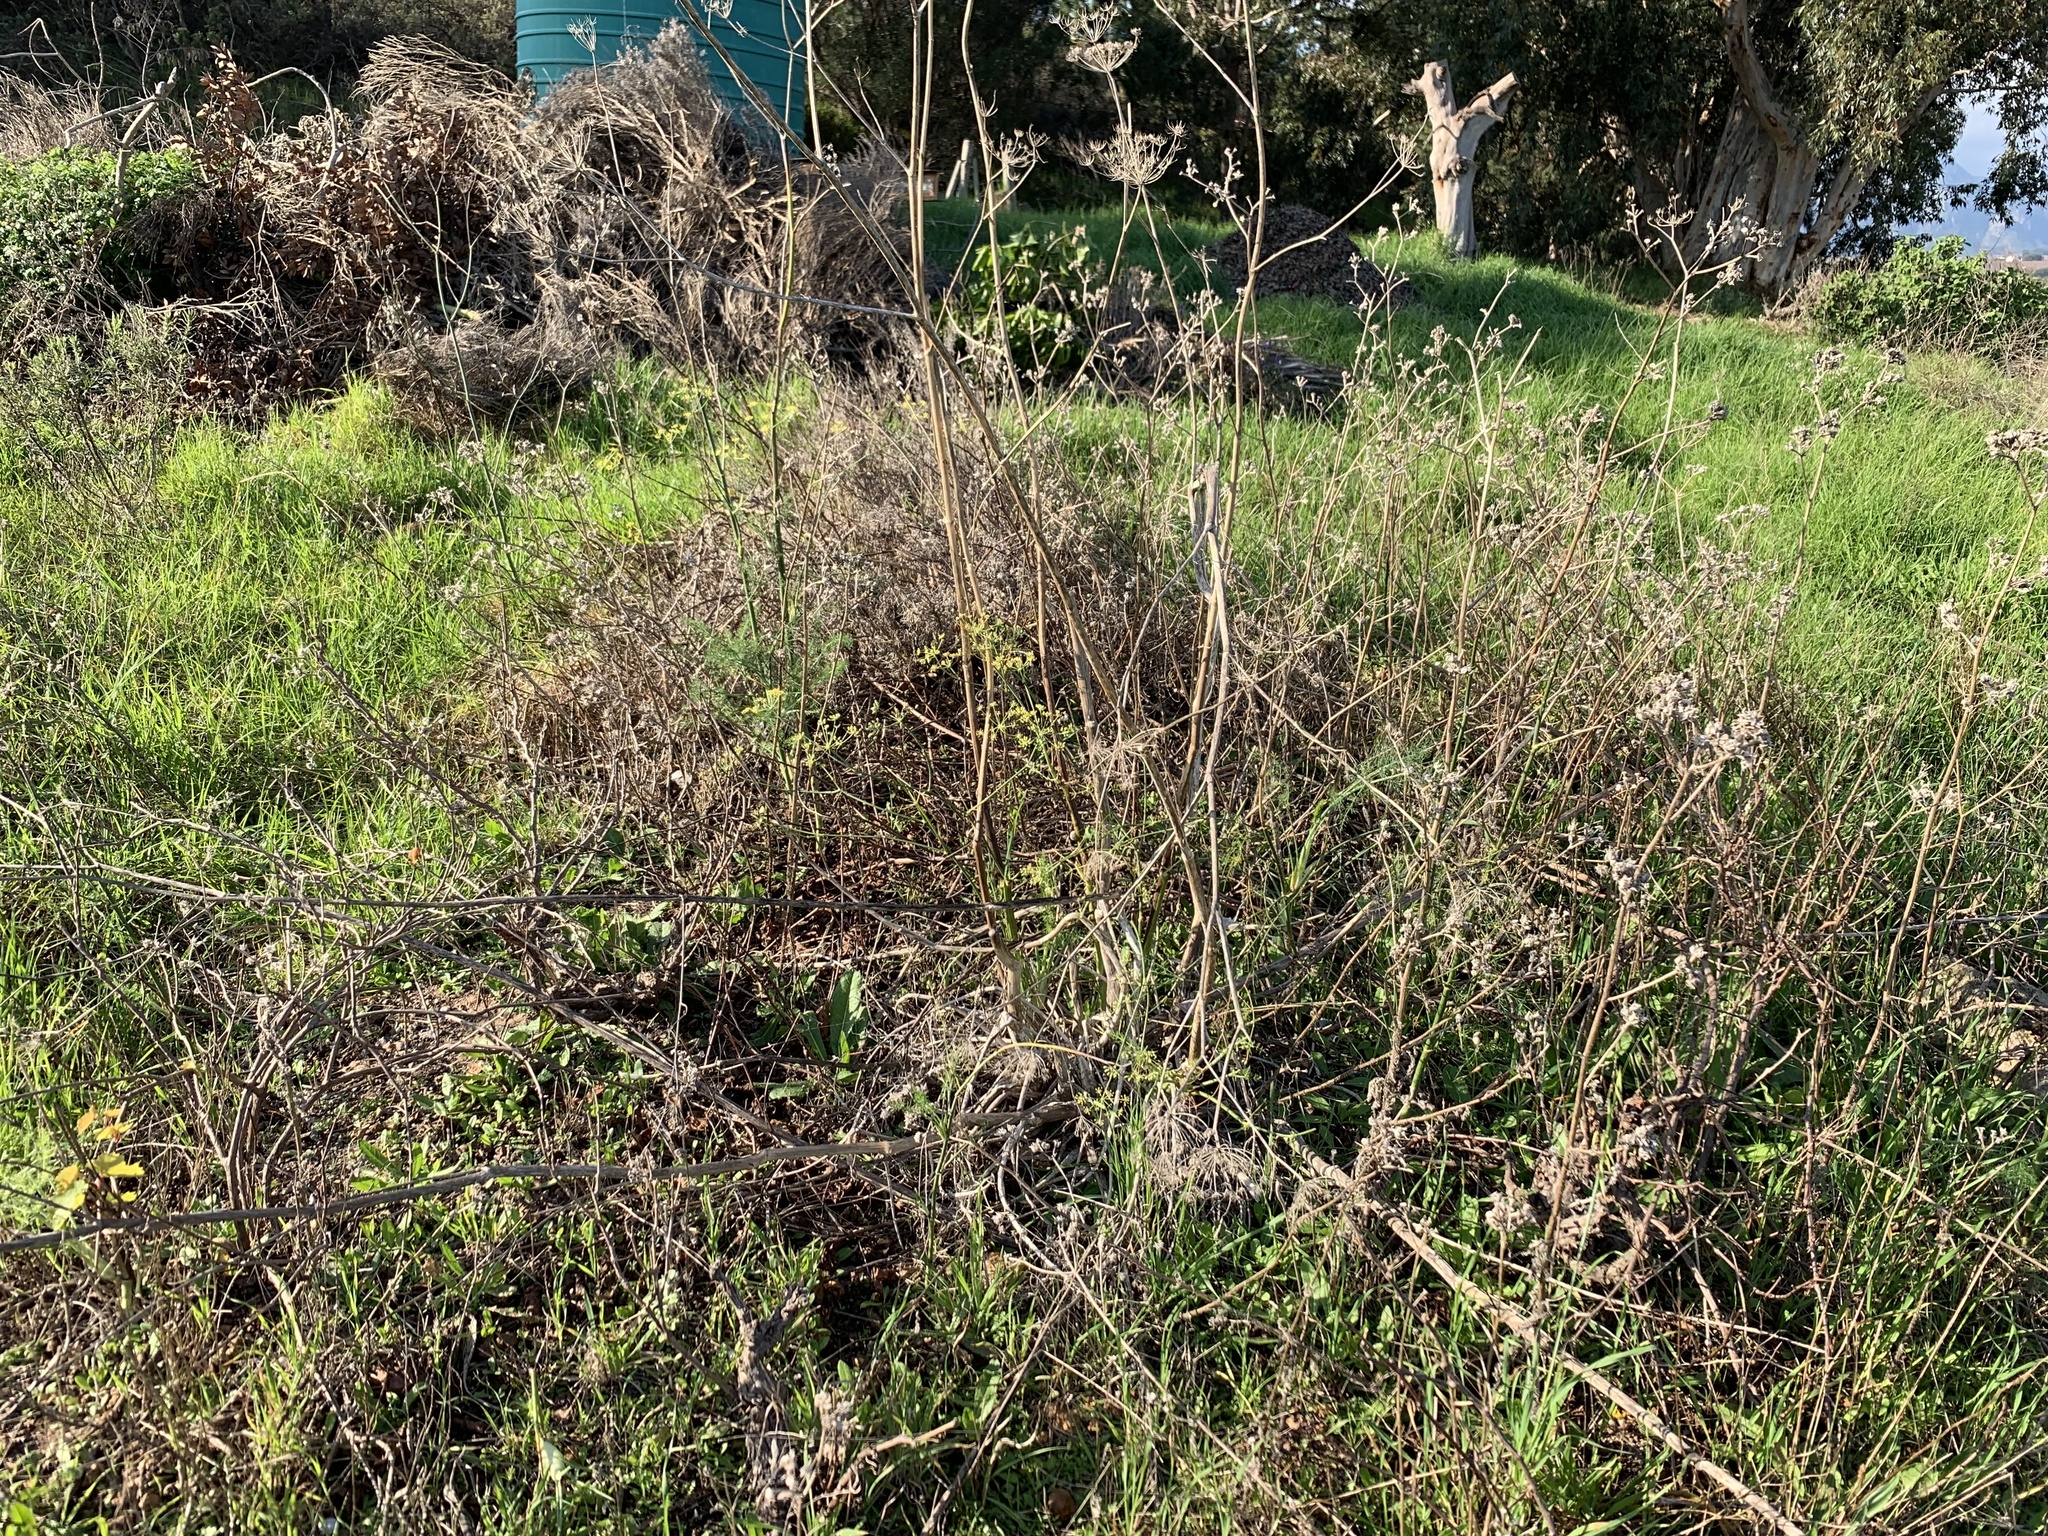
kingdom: Plantae
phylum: Tracheophyta
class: Magnoliopsida
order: Apiales
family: Apiaceae
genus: Foeniculum
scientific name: Foeniculum vulgare
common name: Fennel
